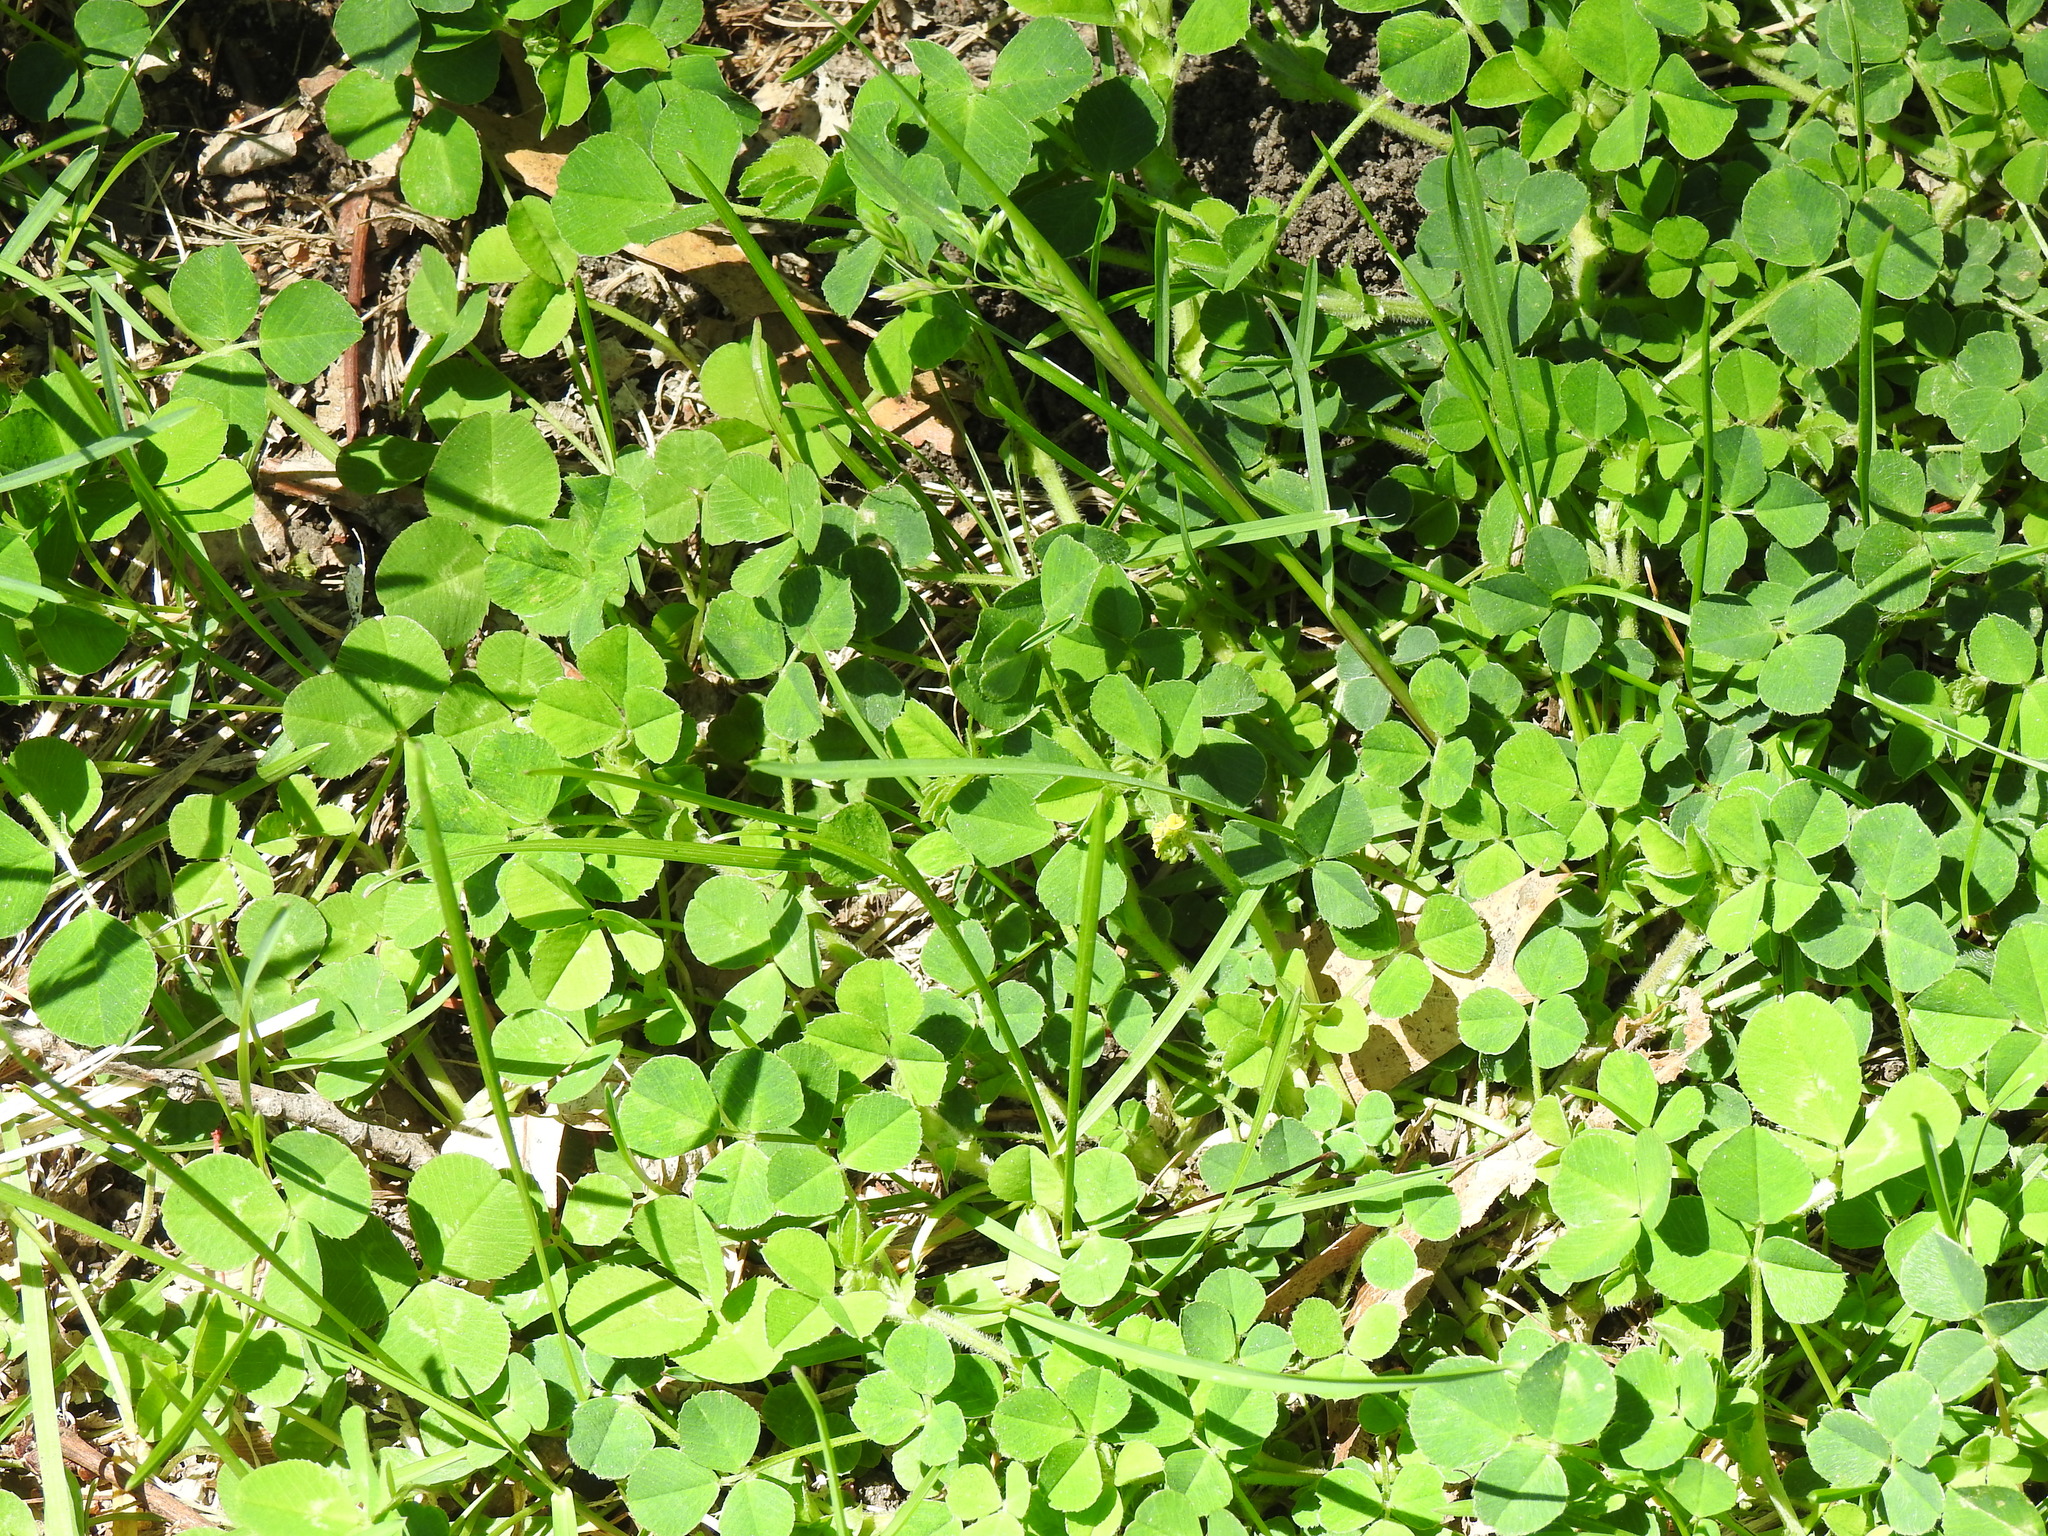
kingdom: Plantae
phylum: Tracheophyta
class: Magnoliopsida
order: Fabales
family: Fabaceae
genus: Trifolium
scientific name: Trifolium repens
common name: White clover
